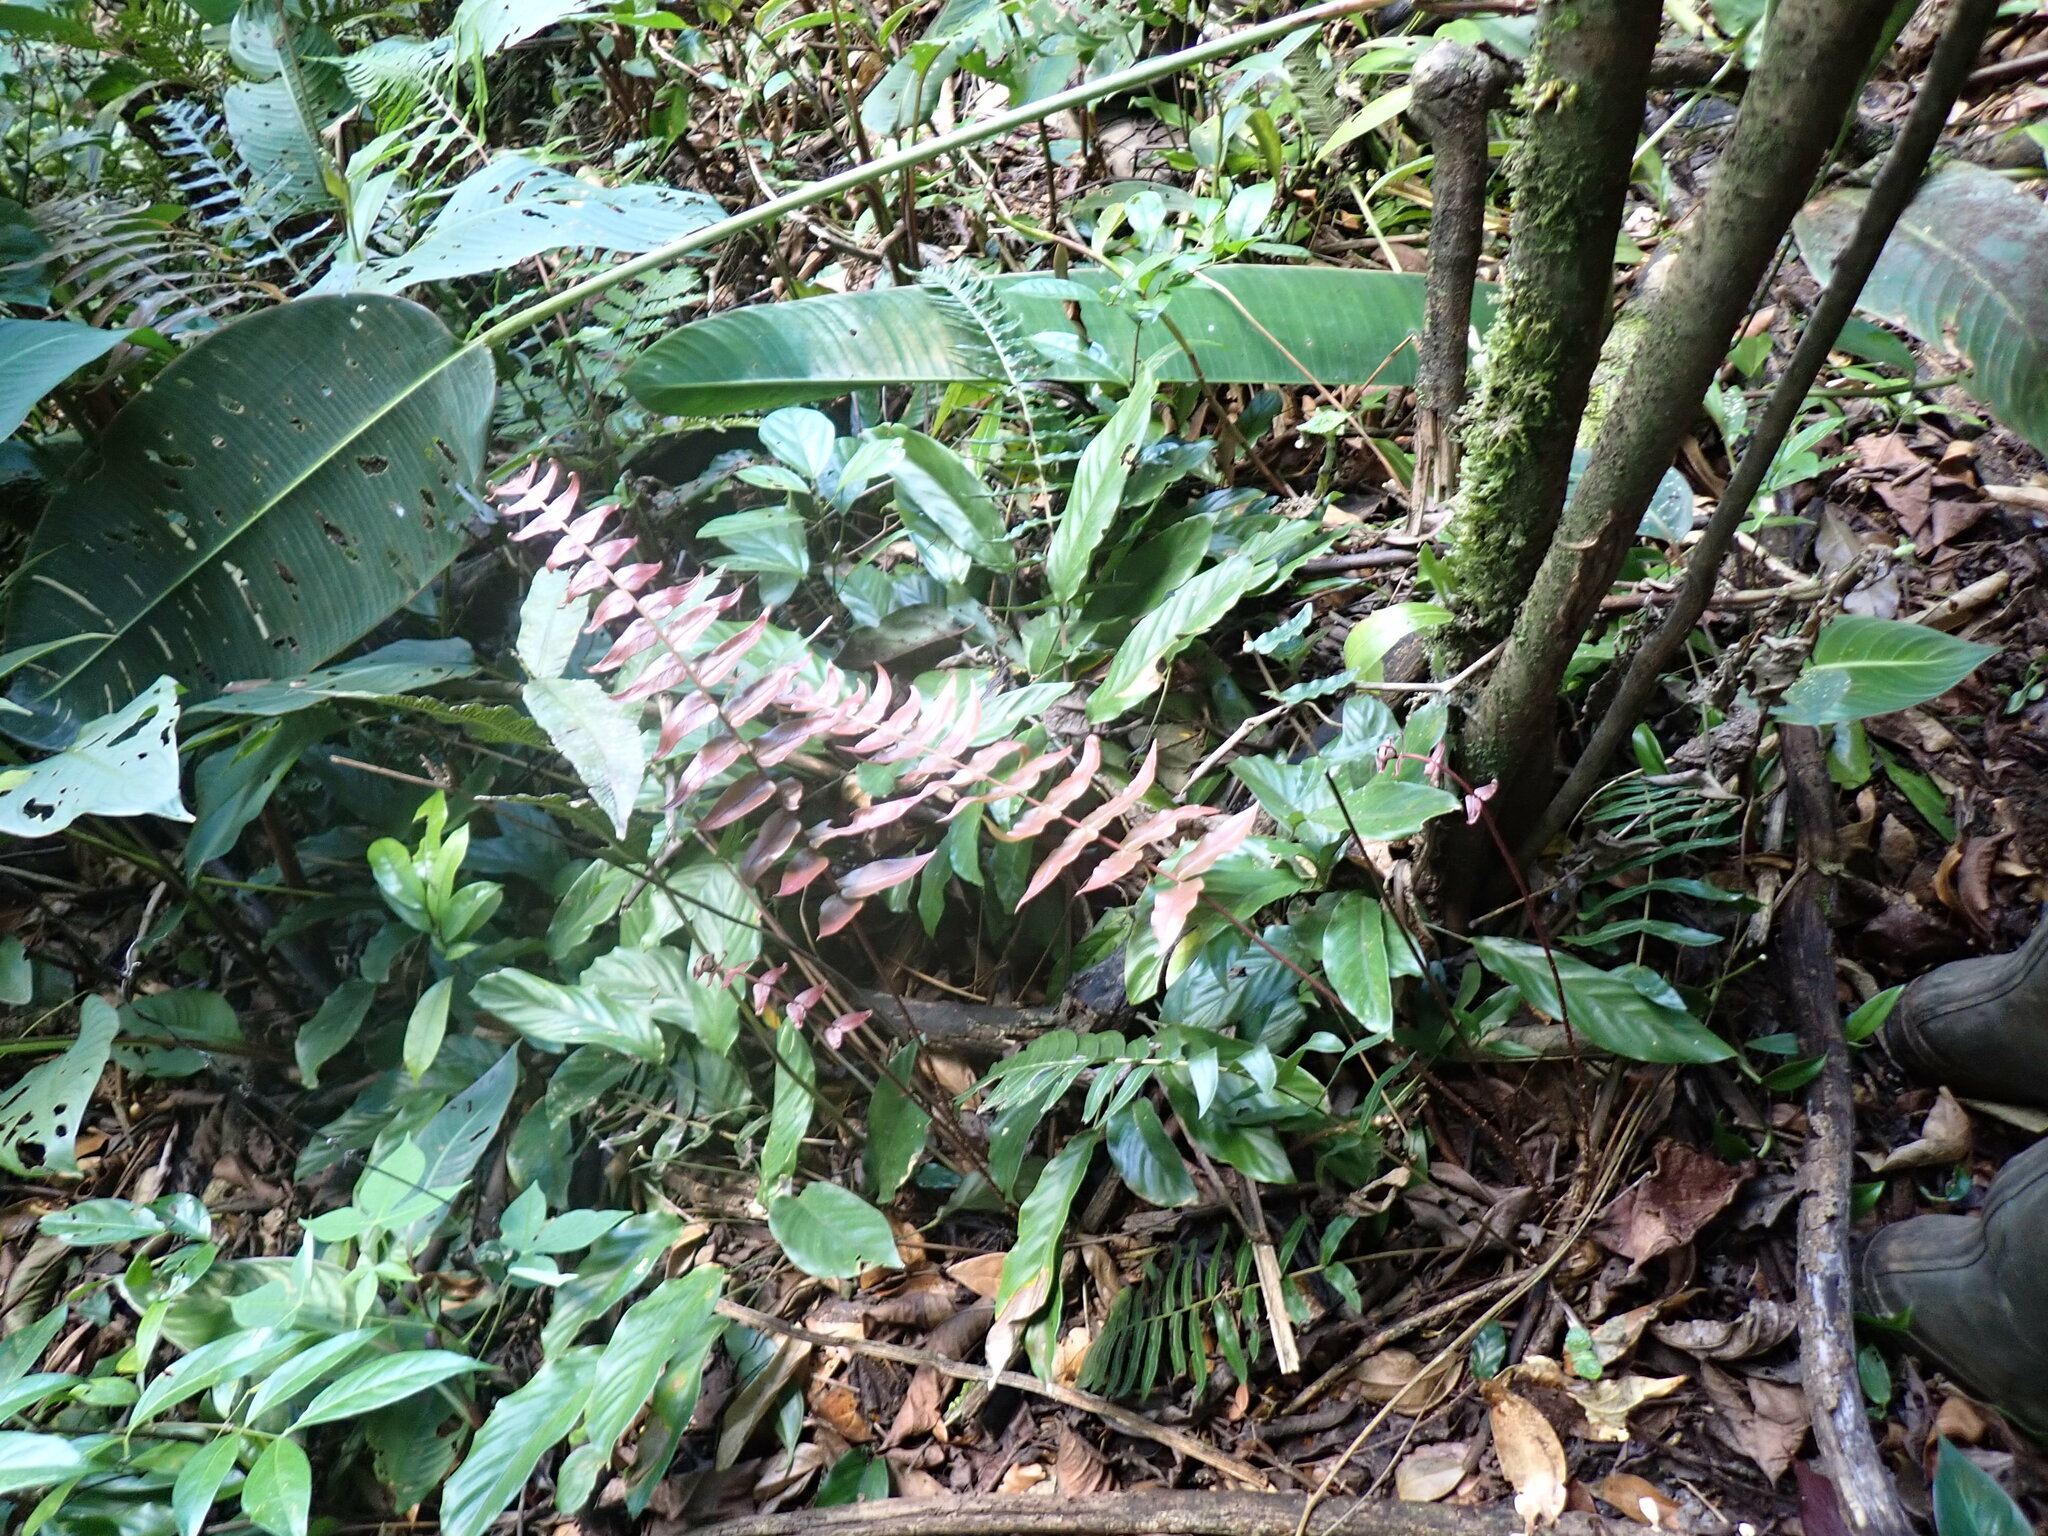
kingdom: Plantae
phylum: Tracheophyta
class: Polypodiopsida
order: Polypodiales
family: Blechnaceae
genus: Blechnum
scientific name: Blechnum occidentale
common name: Hammock fern
